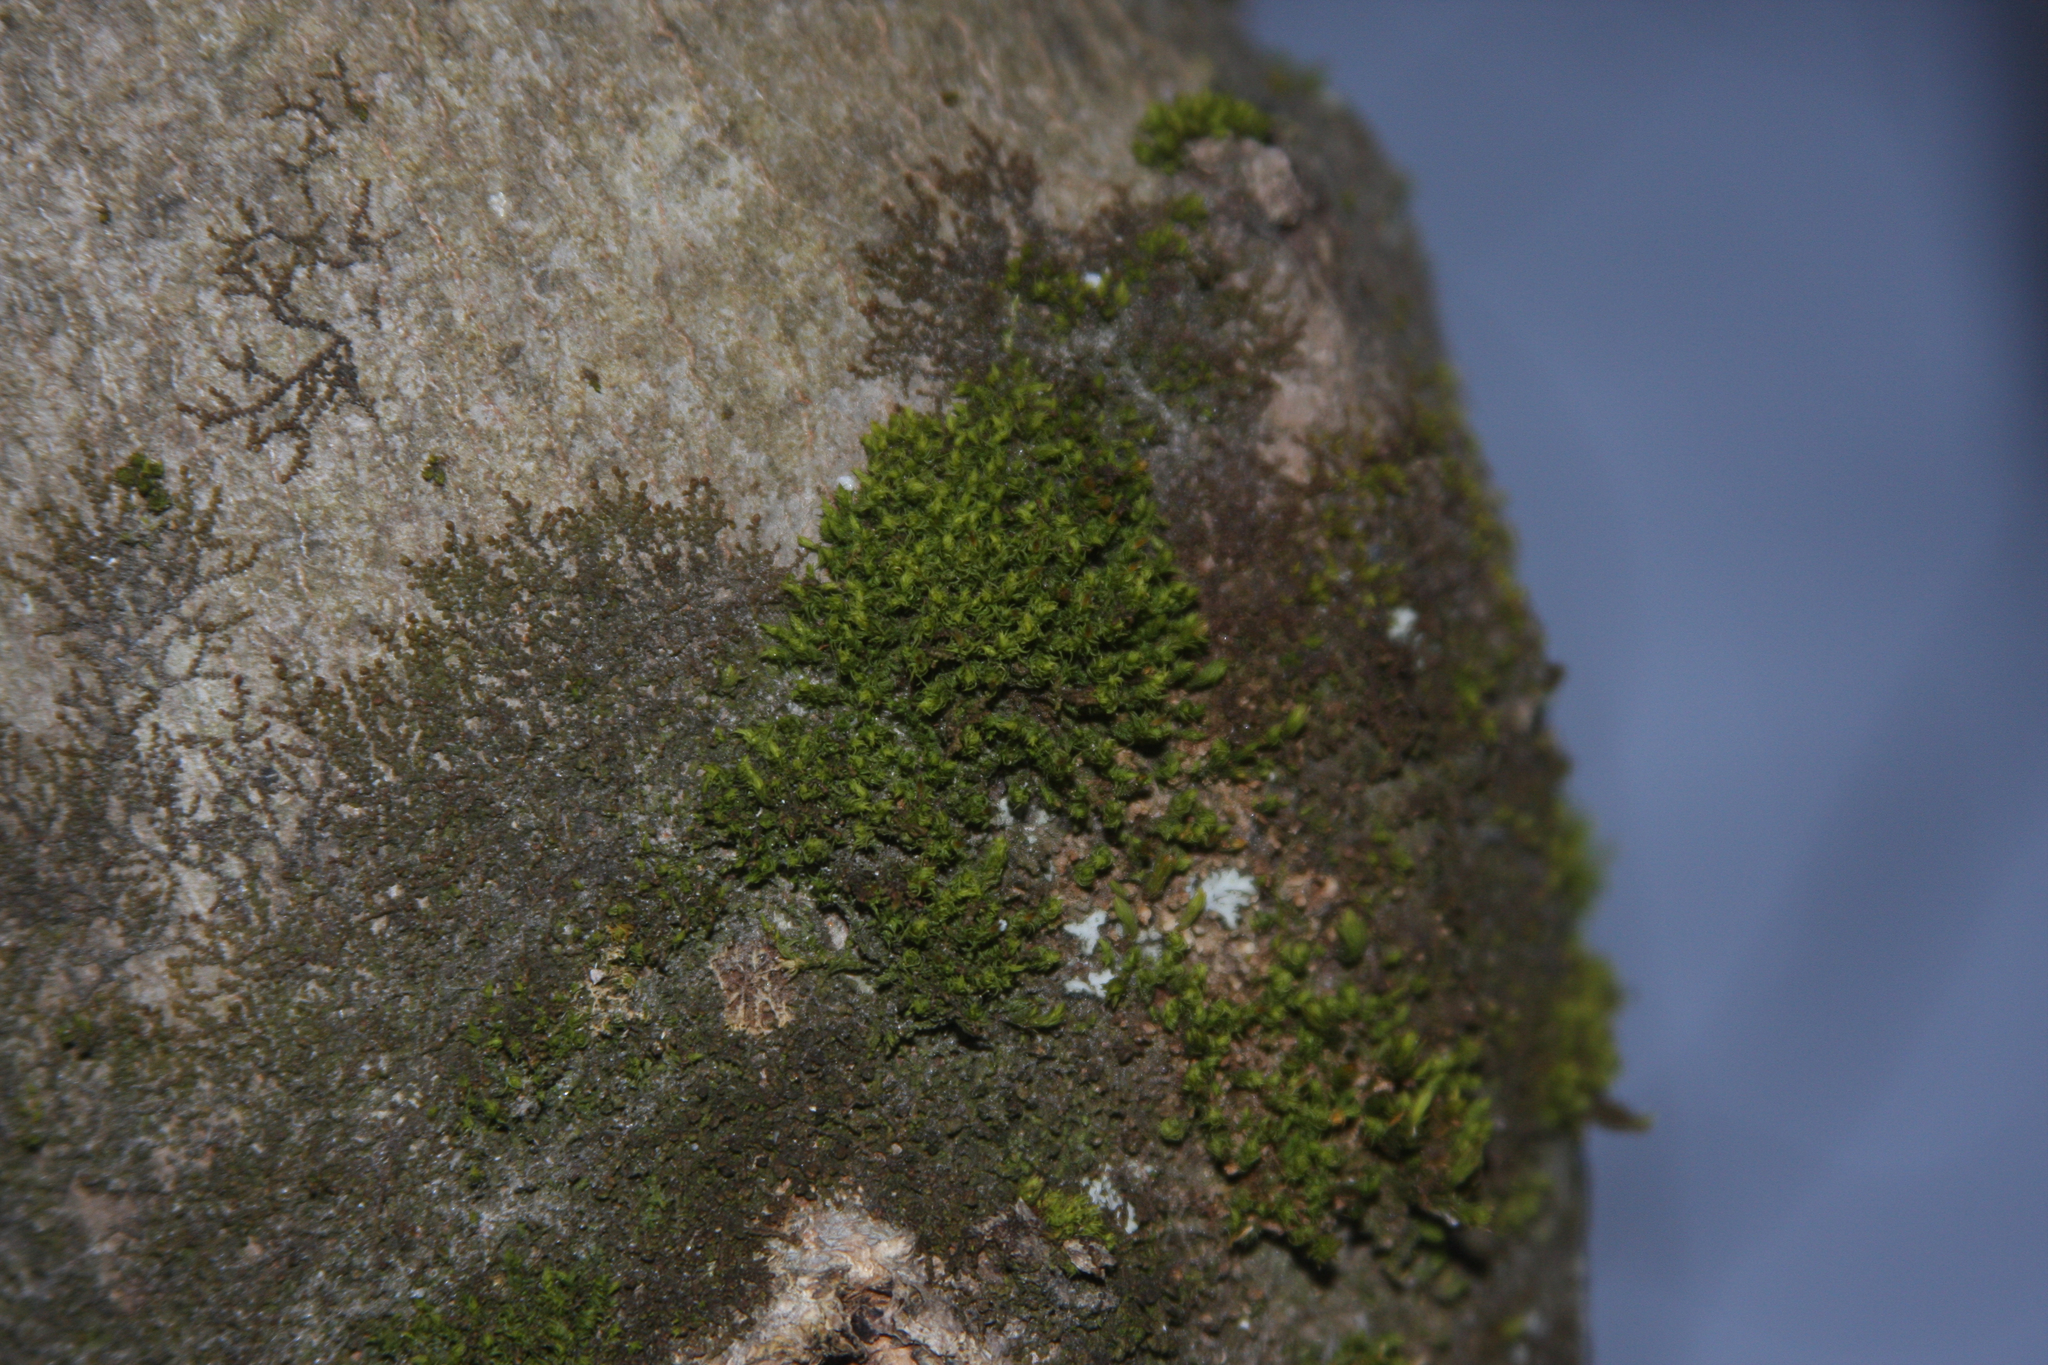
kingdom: Plantae
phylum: Bryophyta
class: Bryopsida
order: Orthotrichales
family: Orthotrichaceae
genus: Ulota
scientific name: Ulota crispa
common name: Crisped pincushion moss
